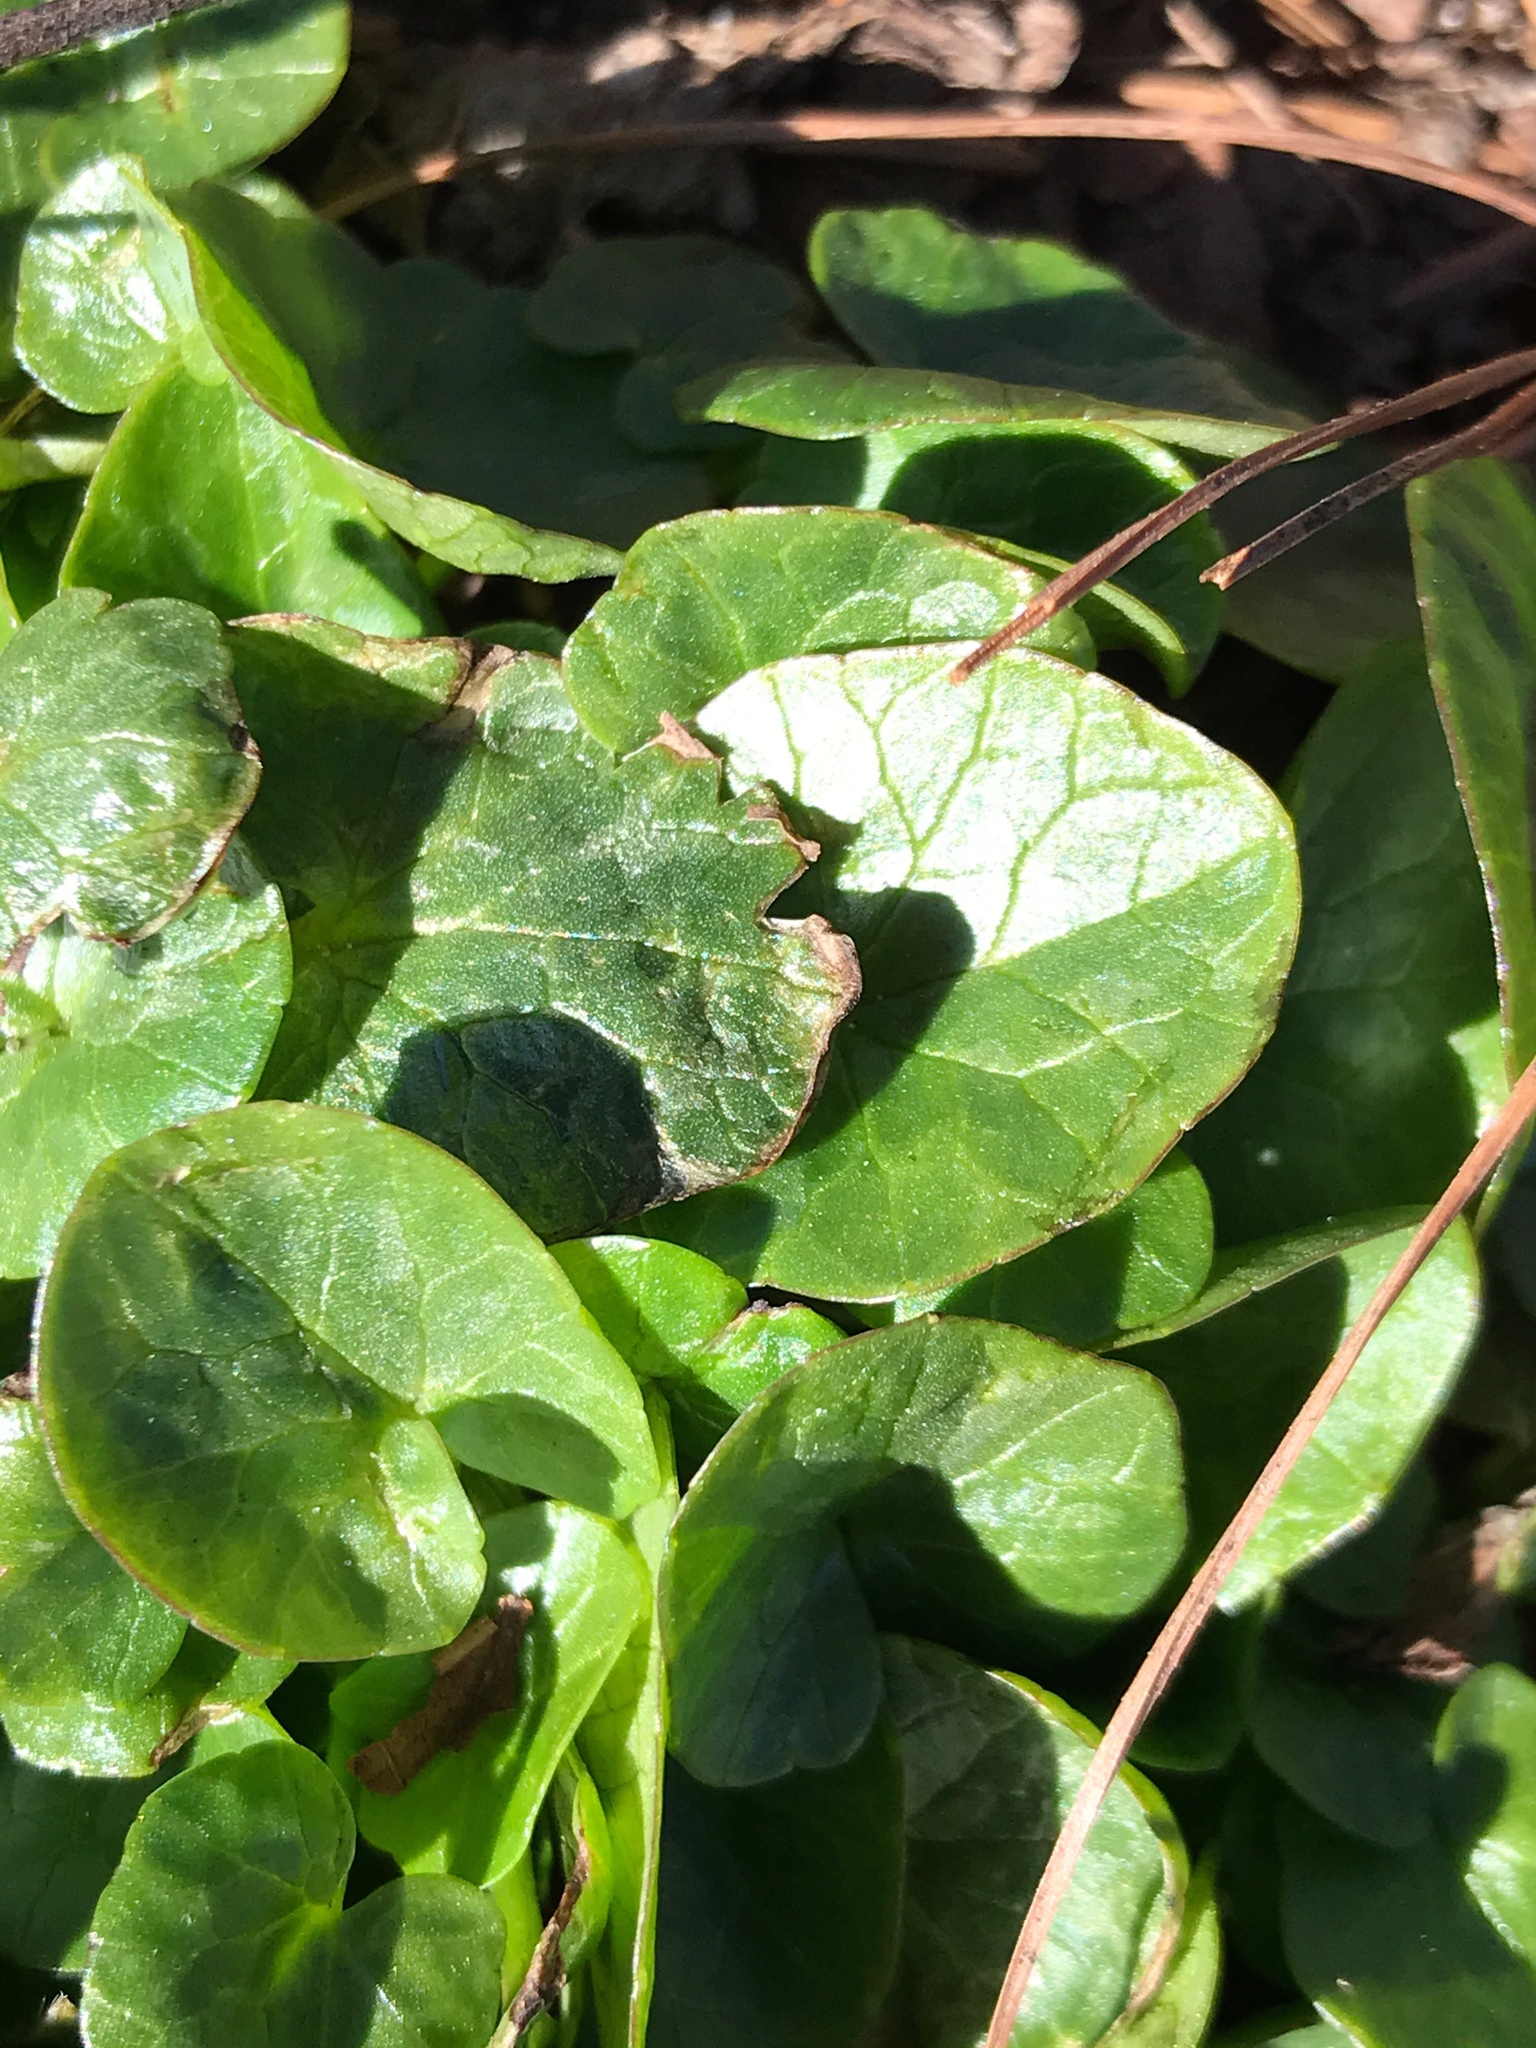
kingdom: Plantae
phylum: Tracheophyta
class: Magnoliopsida
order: Ranunculales
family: Ranunculaceae
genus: Ficaria
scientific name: Ficaria verna
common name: Lesser celandine
